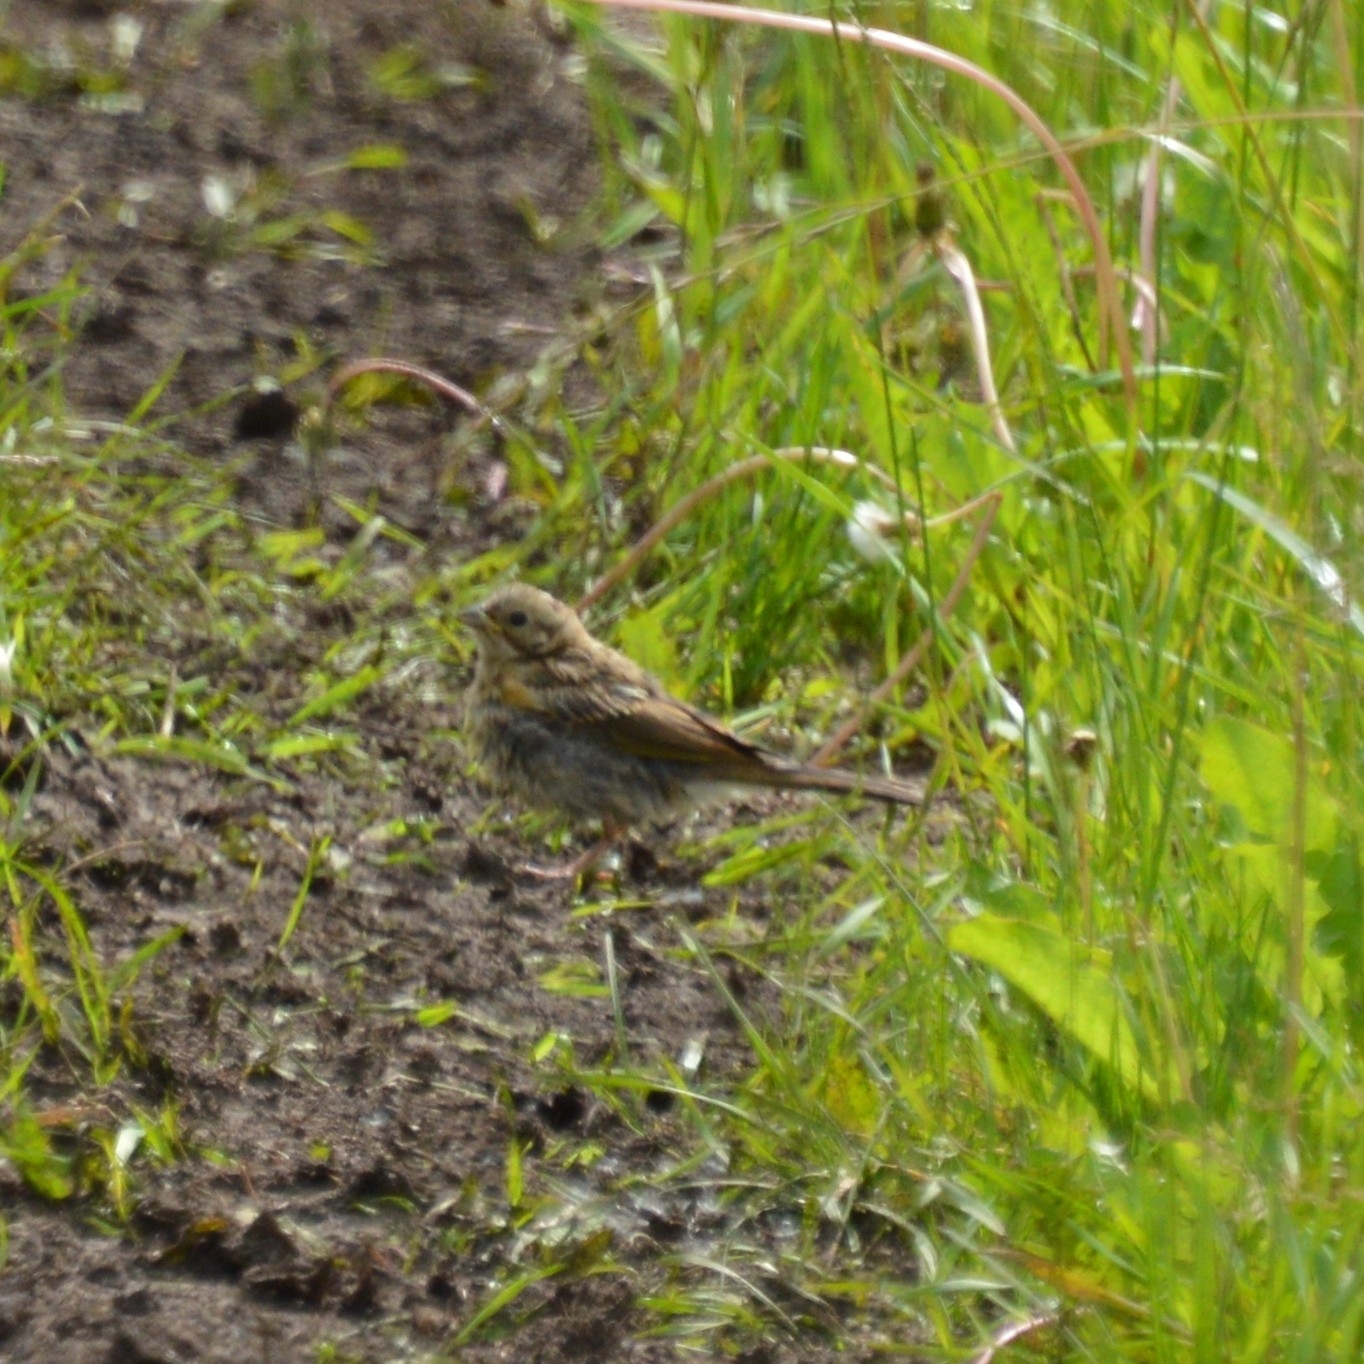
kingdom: Animalia
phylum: Chordata
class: Aves
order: Passeriformes
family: Emberizidae
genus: Emberiza
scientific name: Emberiza citrinella
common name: Yellowhammer
